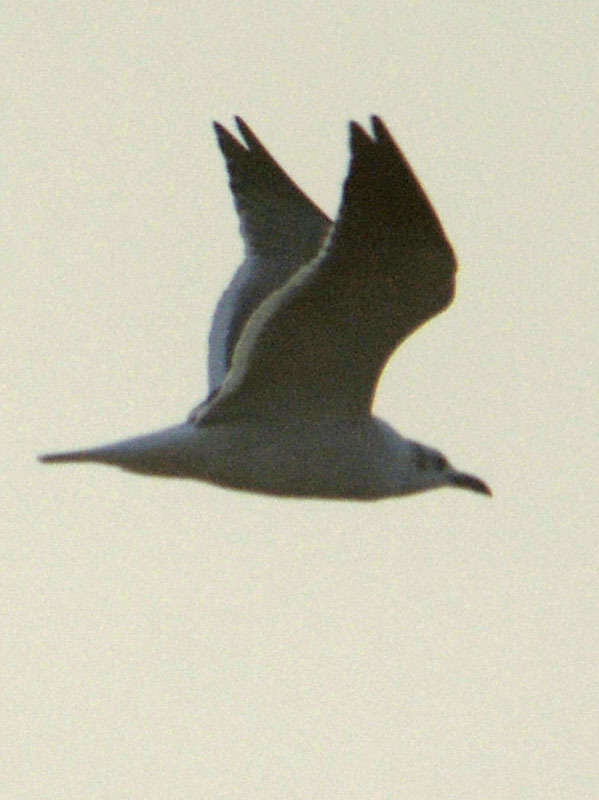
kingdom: Animalia
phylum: Chordata
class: Aves
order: Charadriiformes
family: Laridae
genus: Leucophaeus
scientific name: Leucophaeus atricilla
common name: Laughing gull
